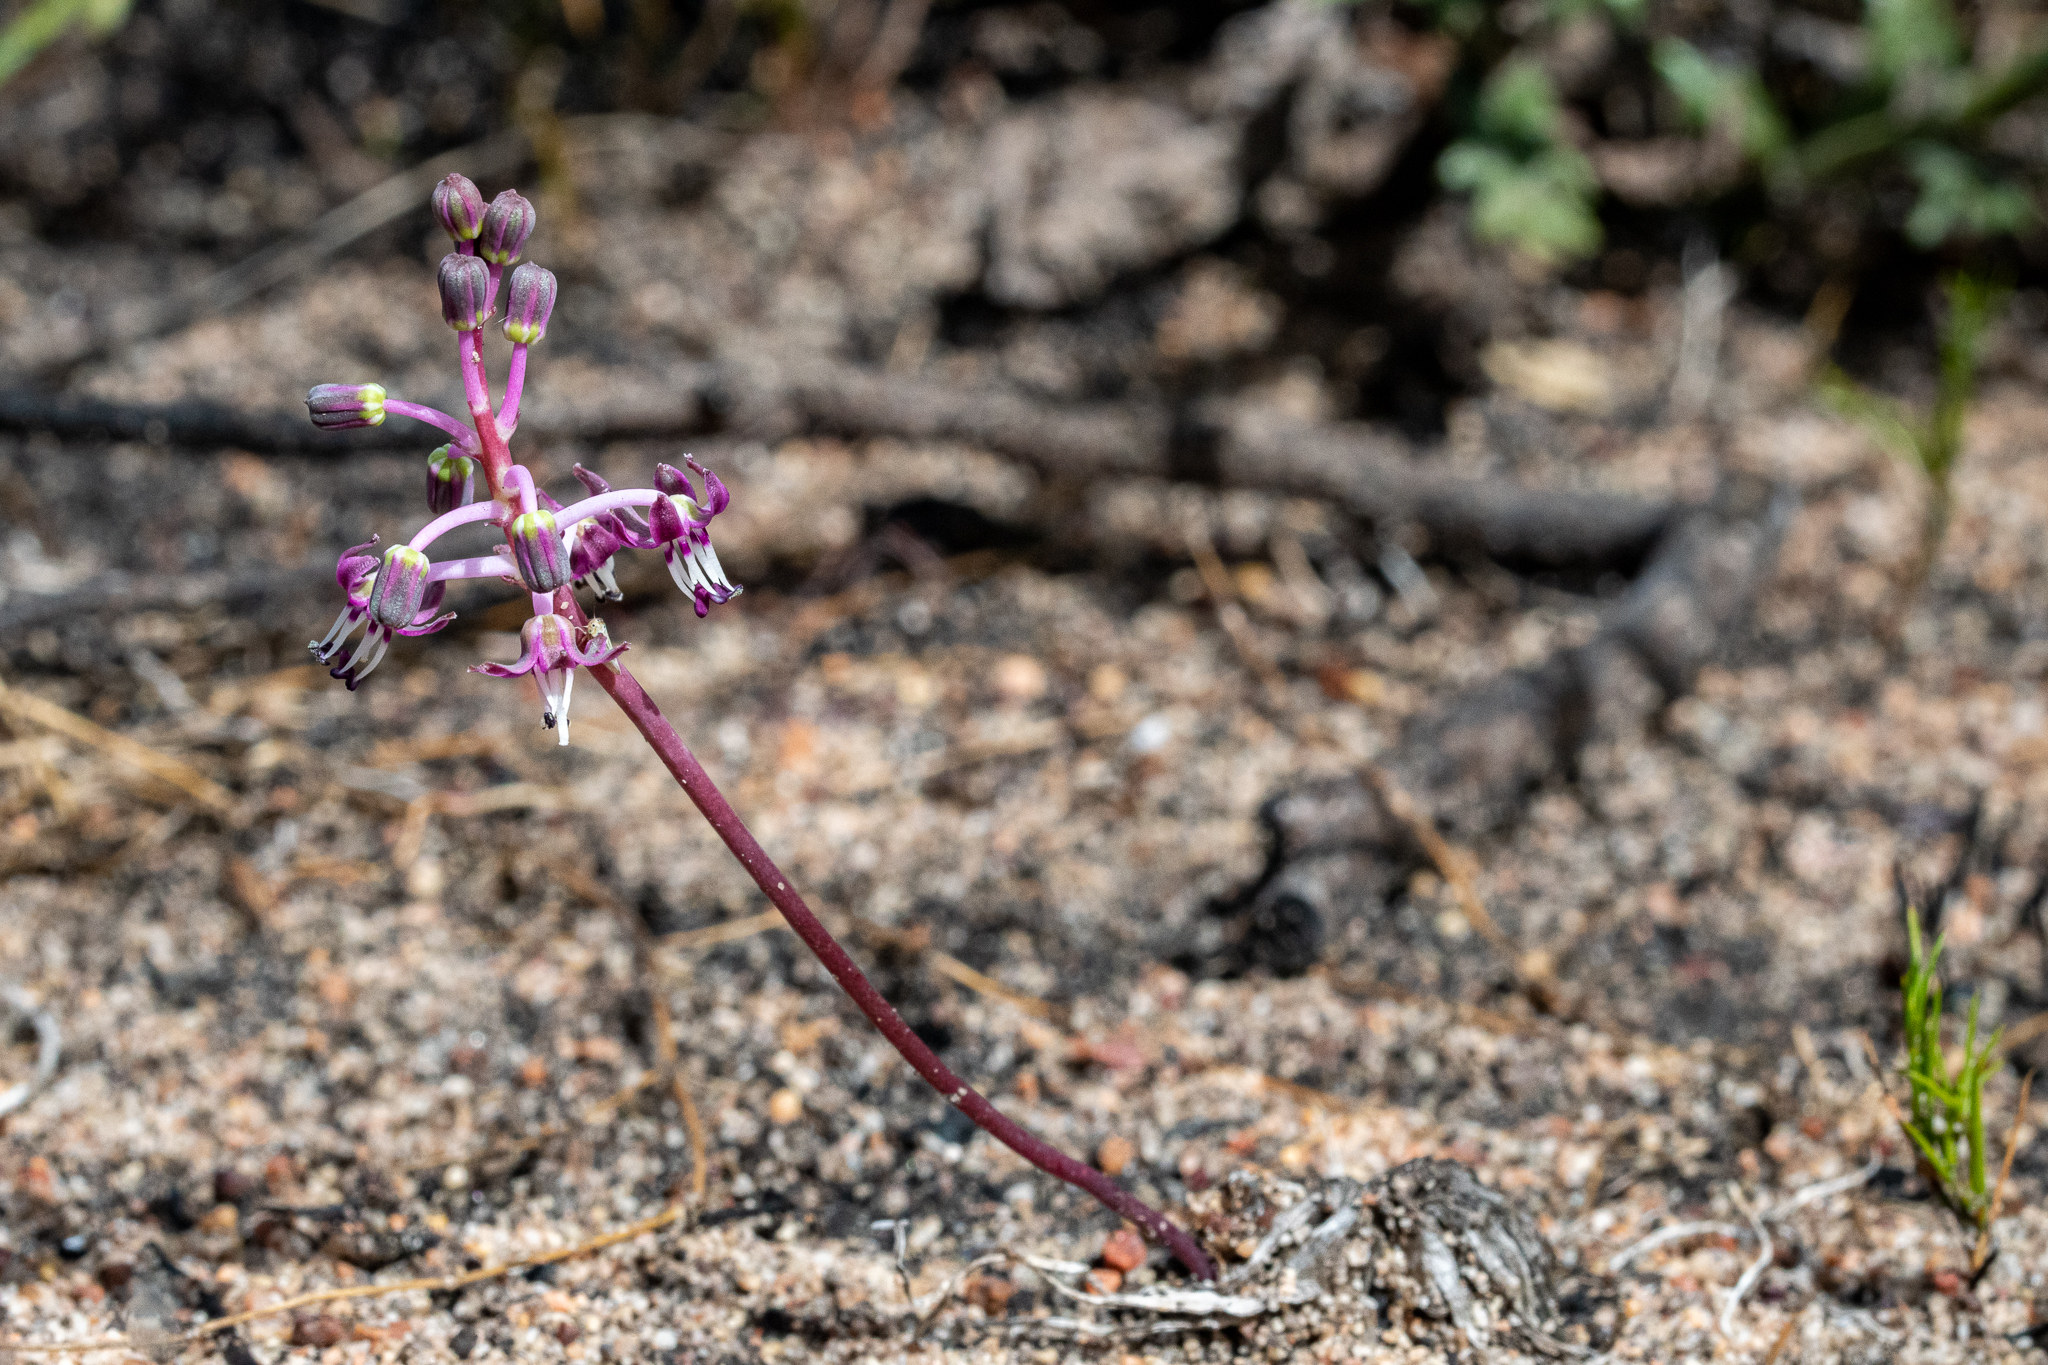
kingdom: Plantae
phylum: Tracheophyta
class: Liliopsida
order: Asparagales
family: Asparagaceae
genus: Ledebouria
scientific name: Ledebouria ovalifolia
